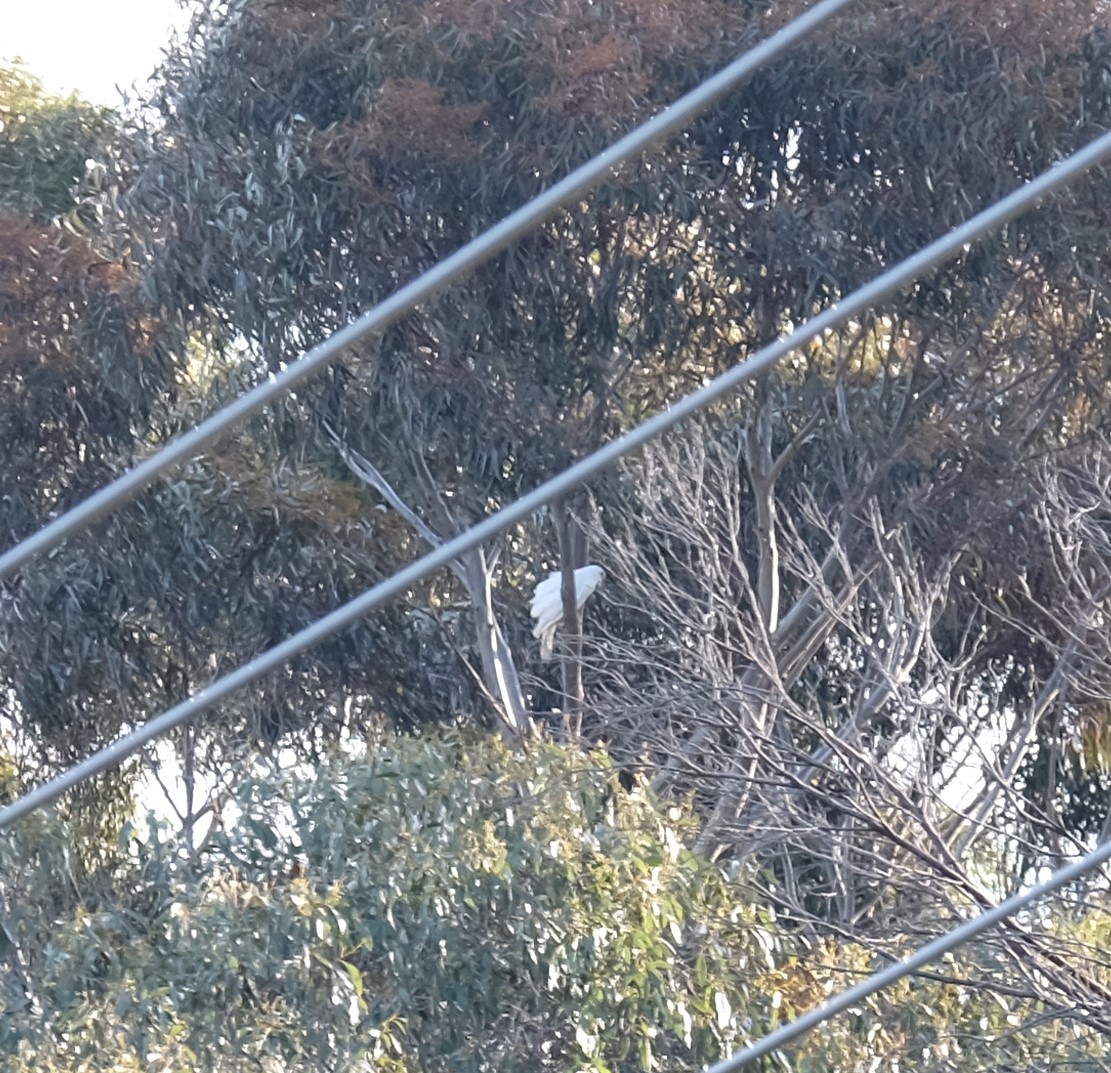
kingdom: Animalia
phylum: Chordata
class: Aves
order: Accipitriformes
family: Accipitridae
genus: Accipiter
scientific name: Accipiter novaehollandiae
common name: Grey goshawk
